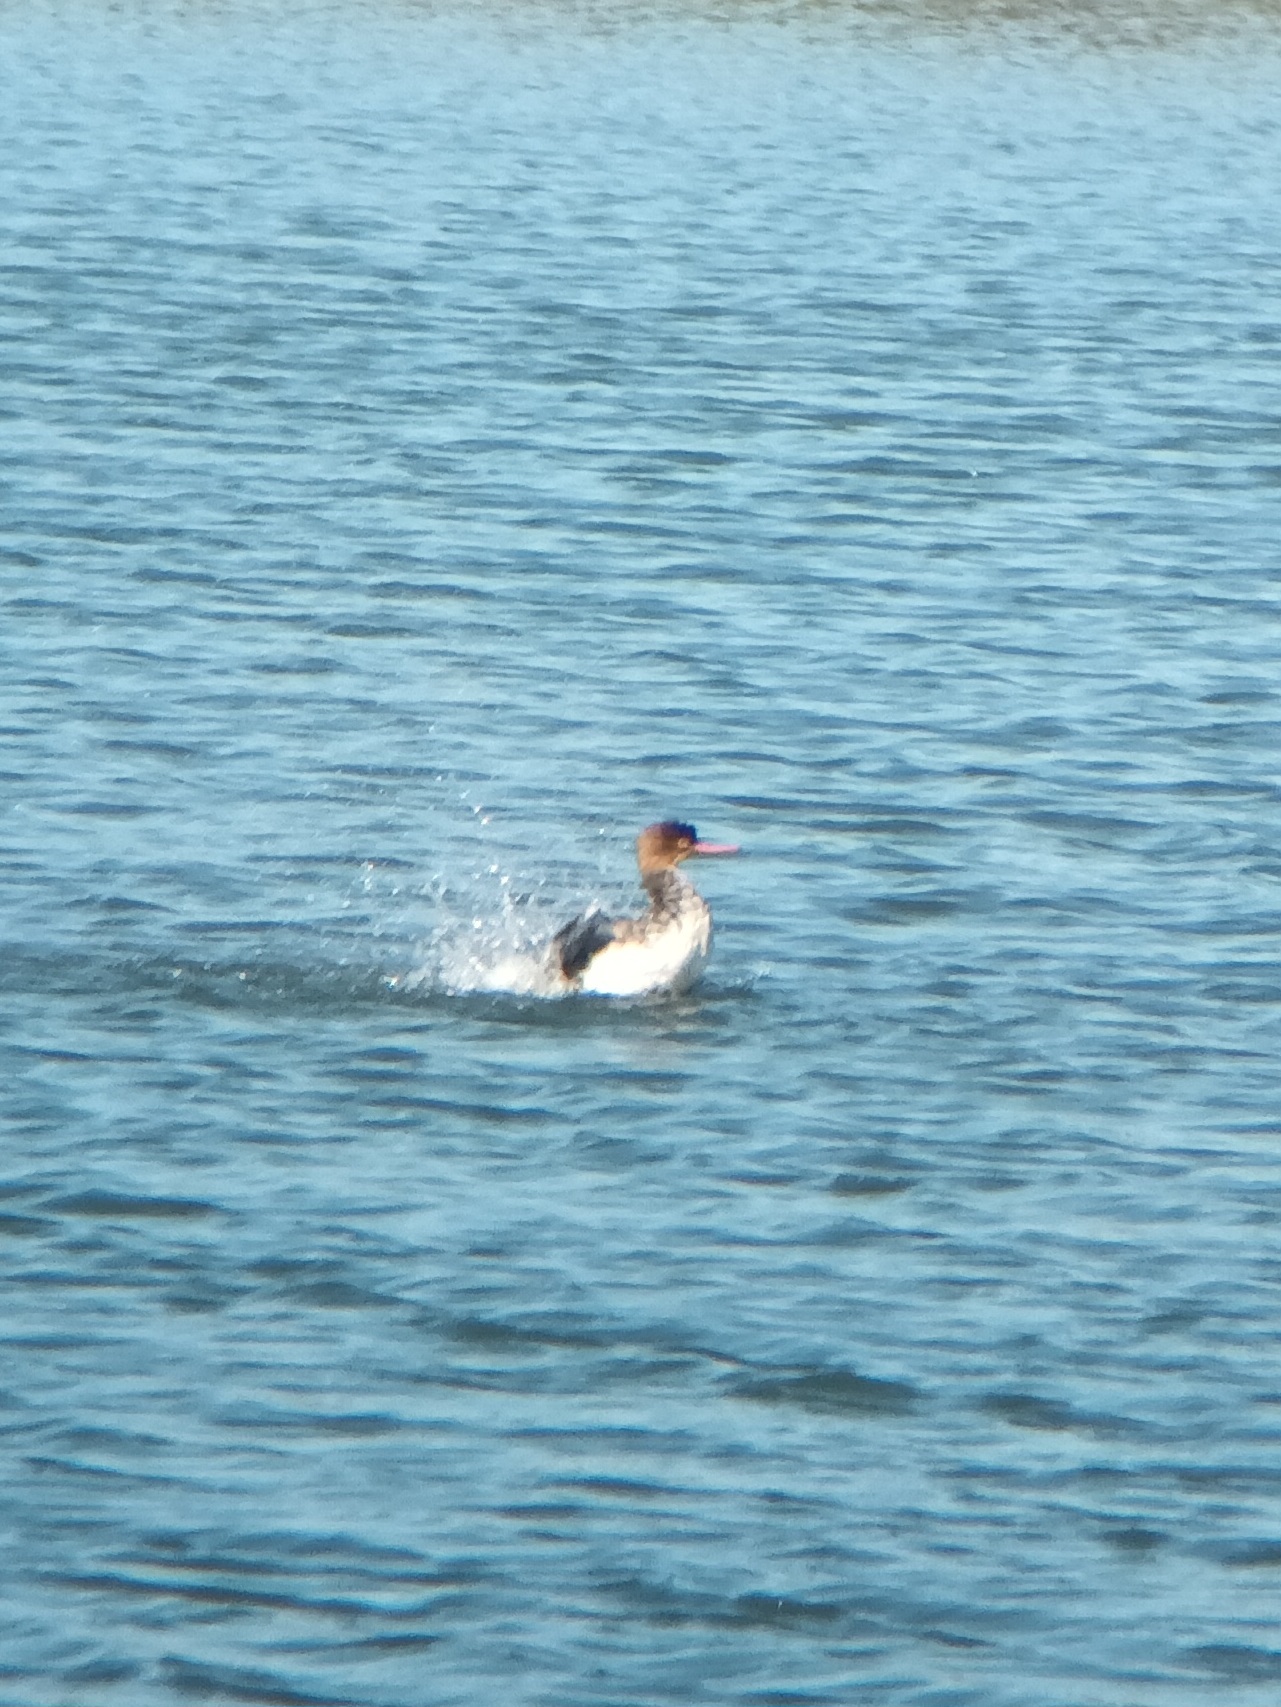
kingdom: Animalia
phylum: Chordata
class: Aves
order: Anseriformes
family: Anatidae
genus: Mergus
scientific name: Mergus serrator
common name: Red-breasted merganser
